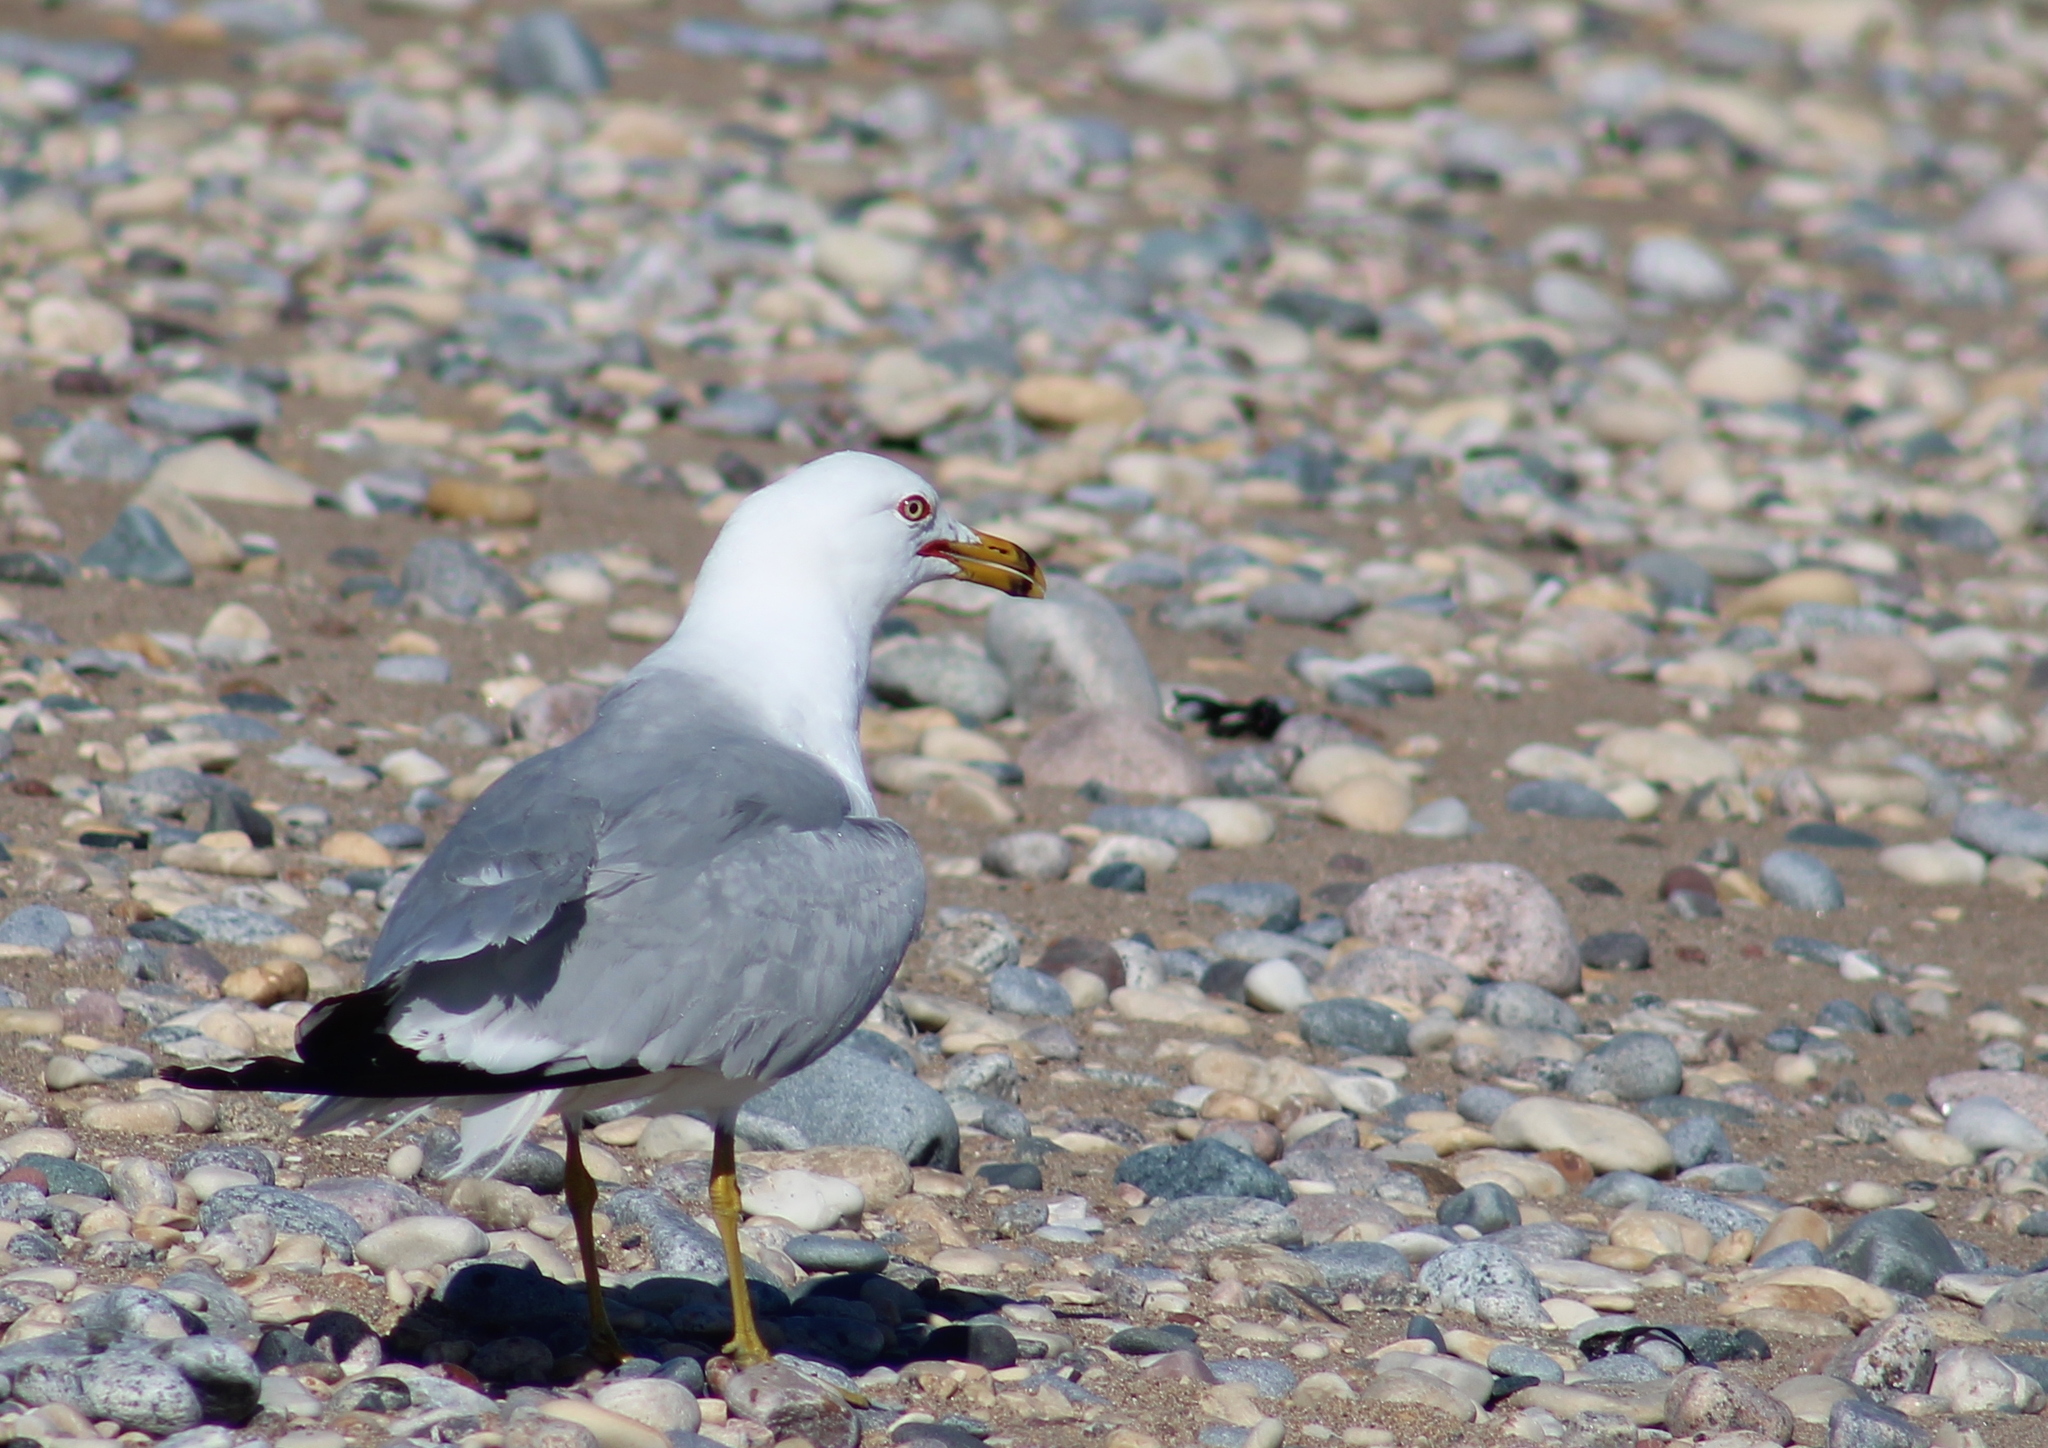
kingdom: Animalia
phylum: Chordata
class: Aves
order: Charadriiformes
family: Laridae
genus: Larus
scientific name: Larus delawarensis
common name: Ring-billed gull
